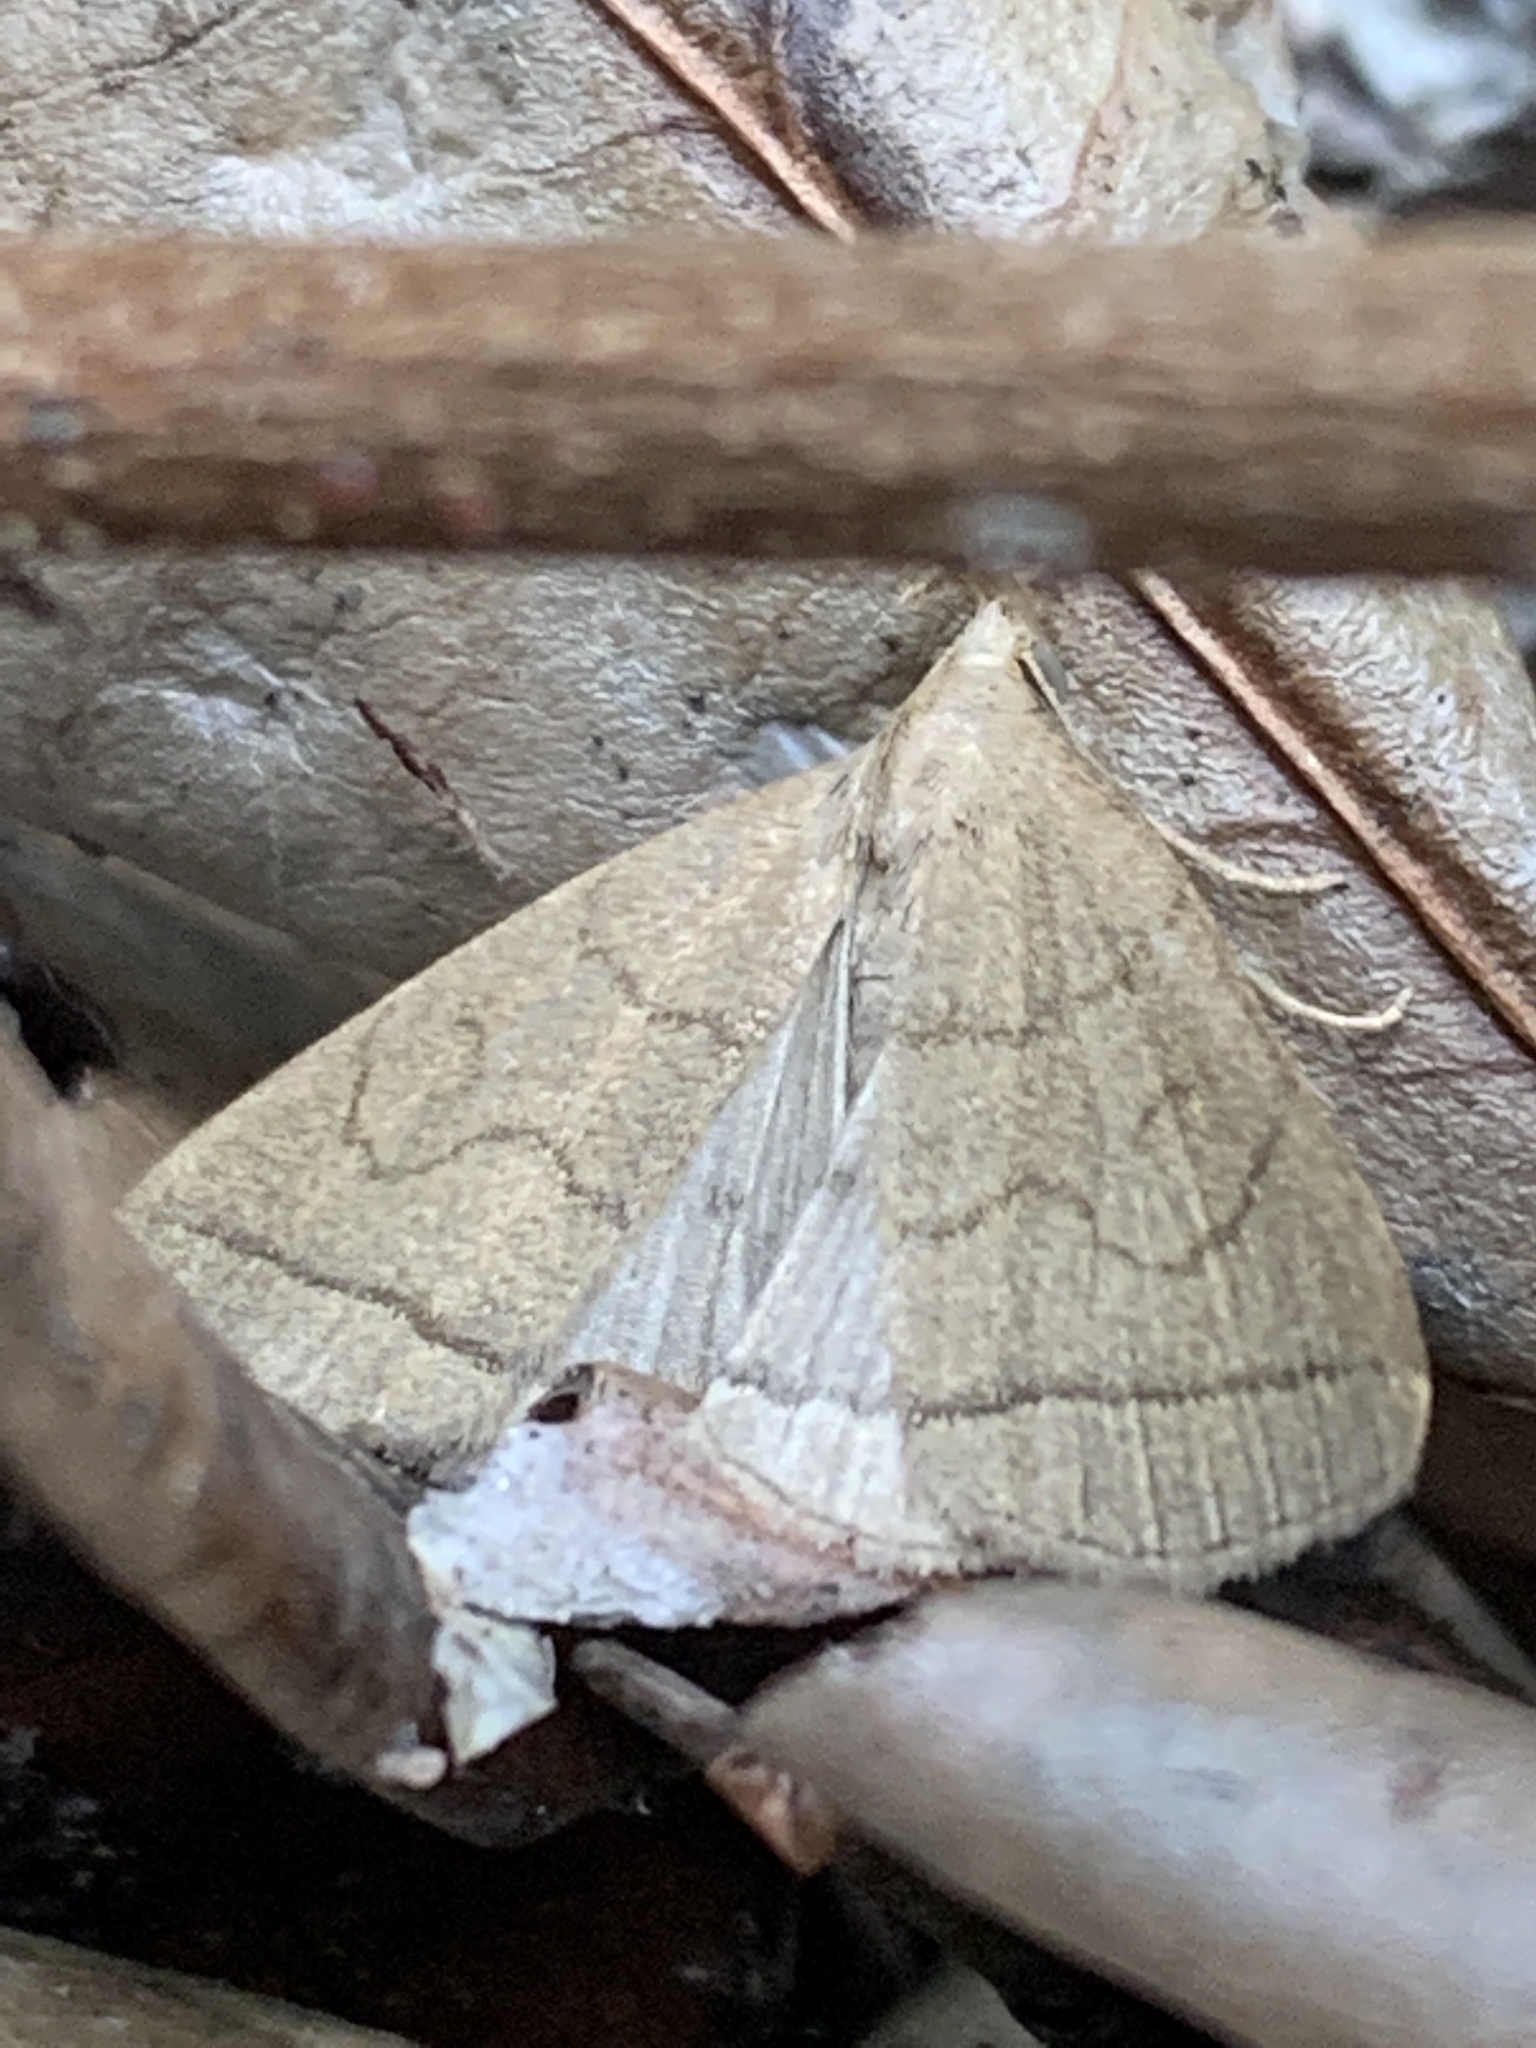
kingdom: Animalia
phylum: Arthropoda
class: Insecta
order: Lepidoptera
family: Erebidae
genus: Herminia
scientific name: Herminia tarsipennalis
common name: Fan-foot
